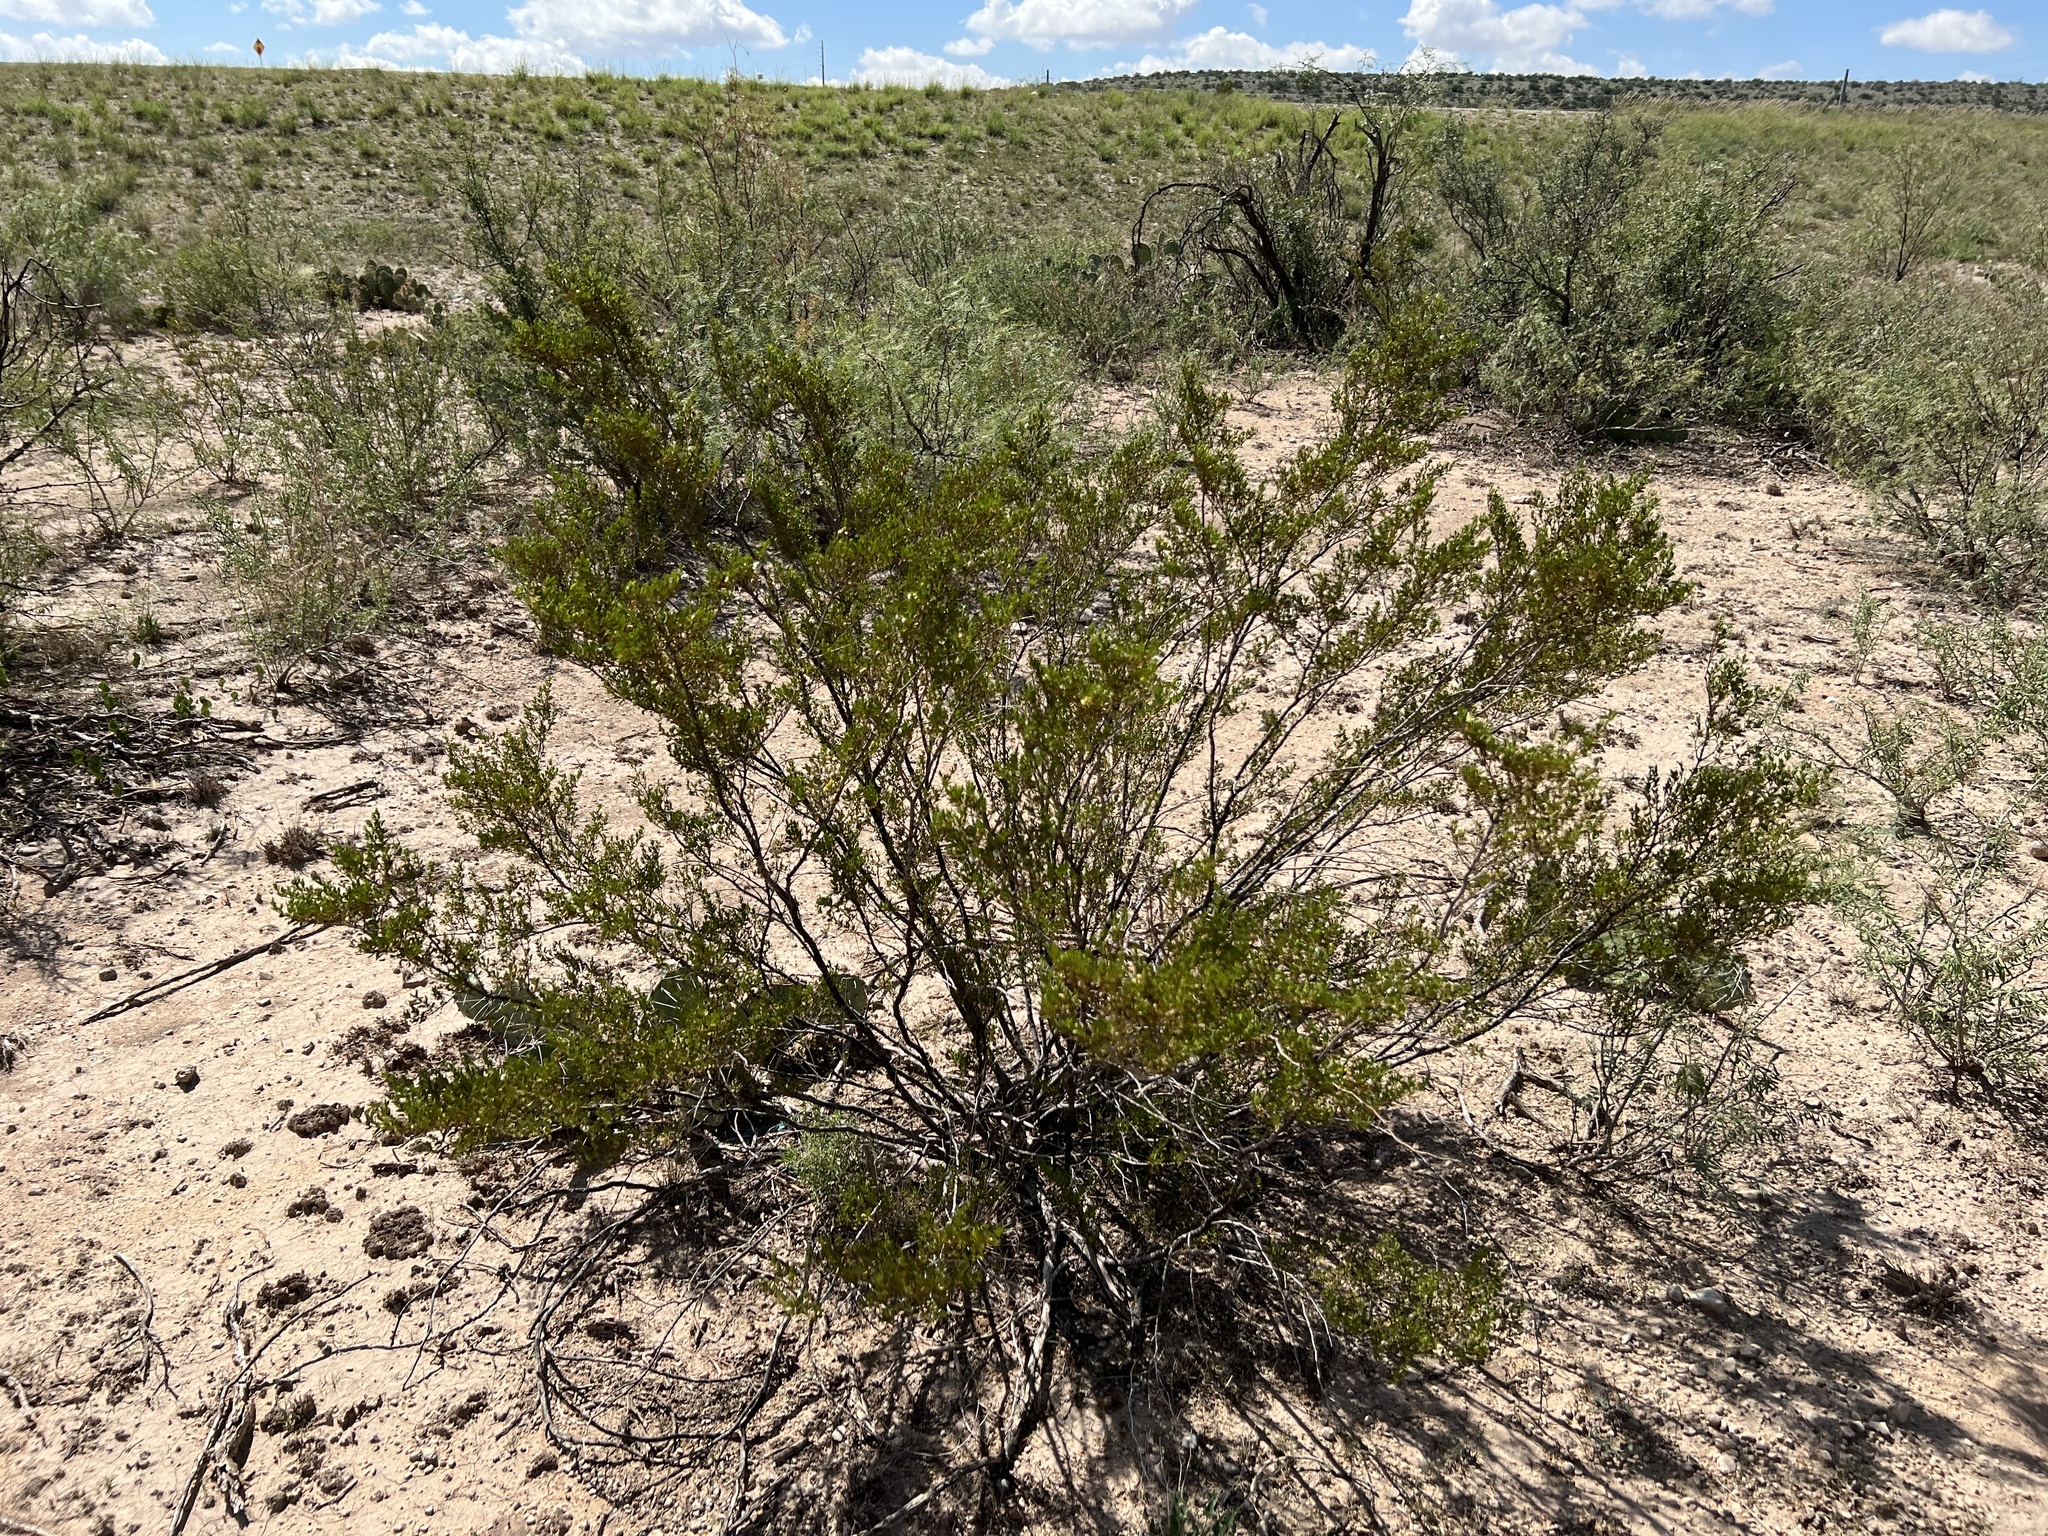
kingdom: Plantae
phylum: Tracheophyta
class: Magnoliopsida
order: Zygophyllales
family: Zygophyllaceae
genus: Larrea
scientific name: Larrea tridentata
